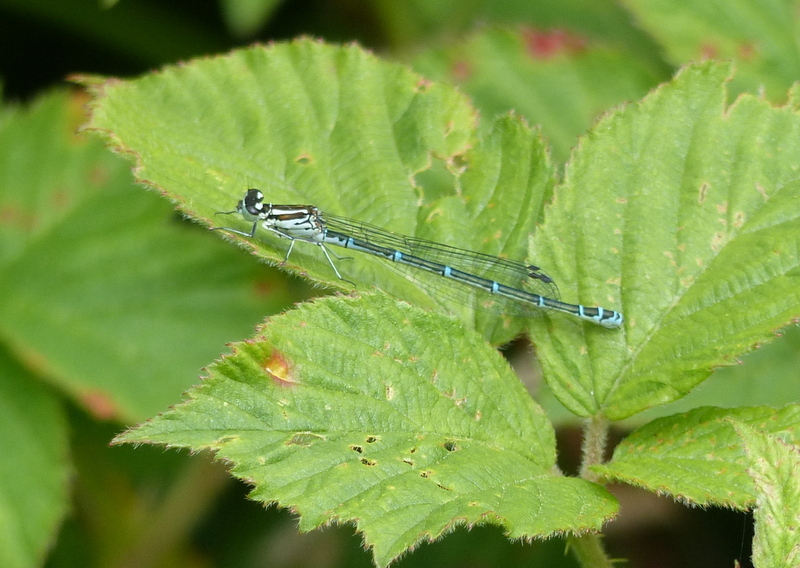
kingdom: Animalia
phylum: Arthropoda
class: Insecta
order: Odonata
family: Coenagrionidae
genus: Coenagrion
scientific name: Coenagrion puella
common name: Azure damselfly
